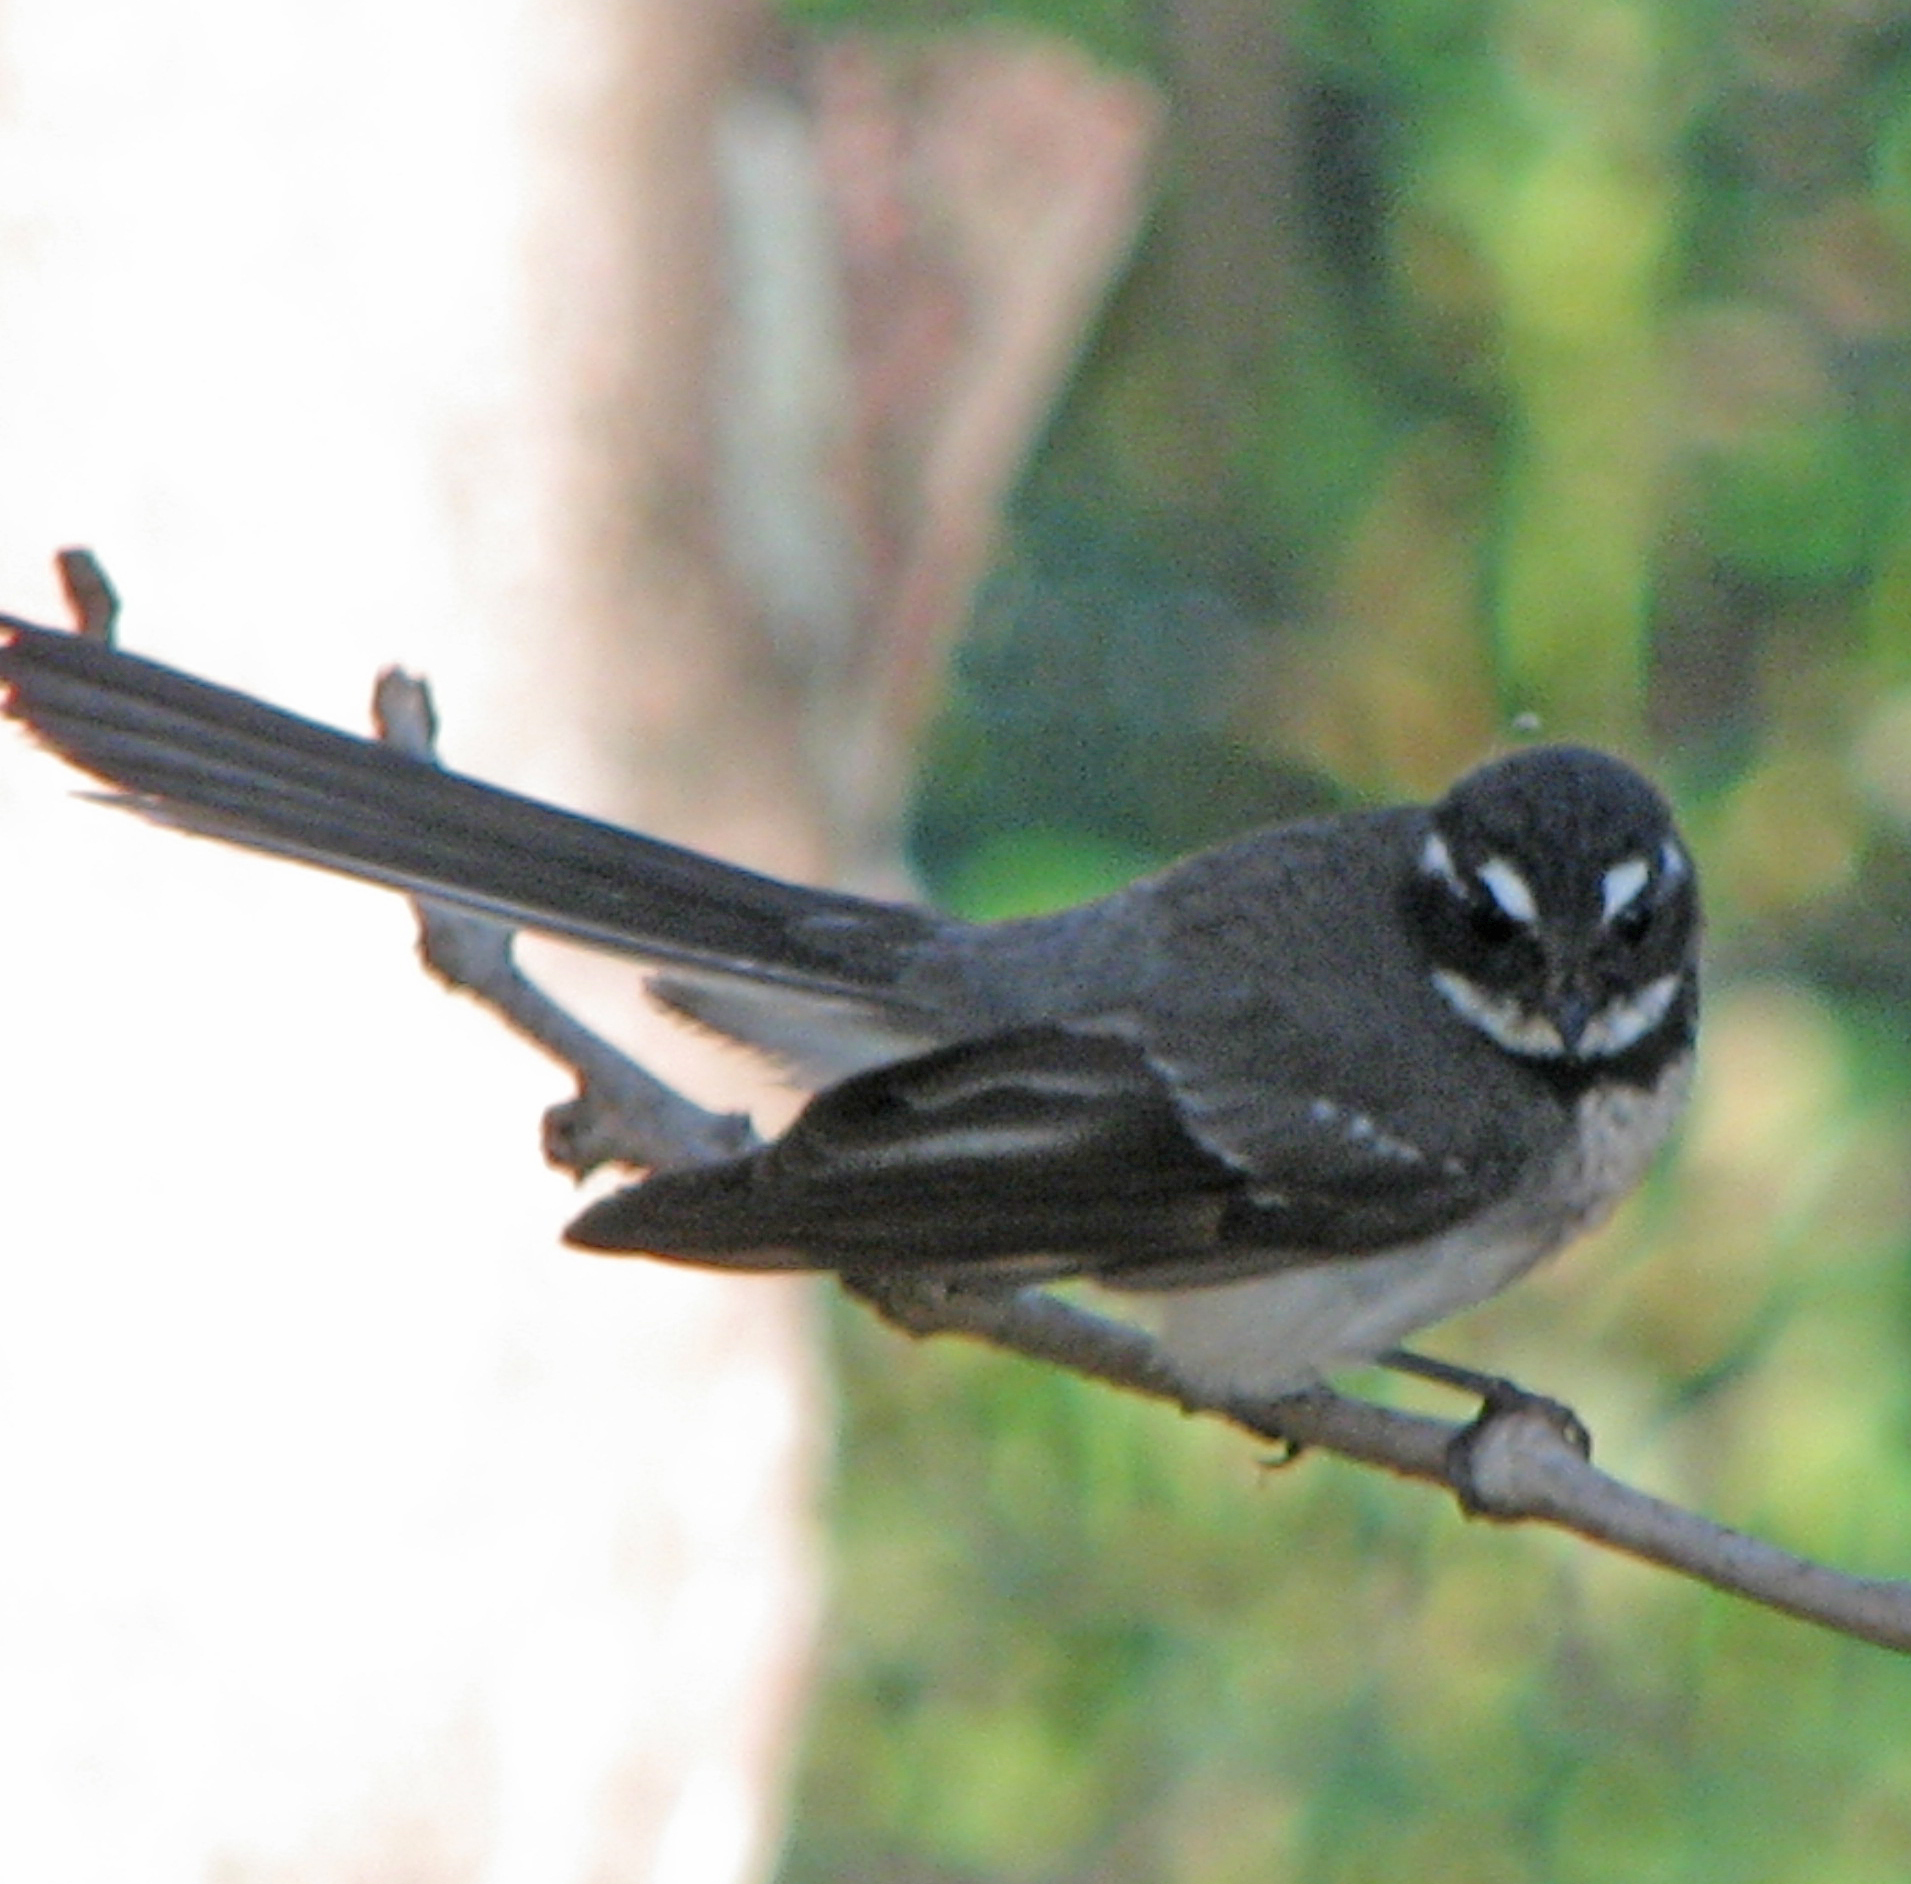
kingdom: Animalia
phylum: Chordata
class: Aves
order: Passeriformes
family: Rhipiduridae
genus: Rhipidura
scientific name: Rhipidura albiscapa
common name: Grey fantail
